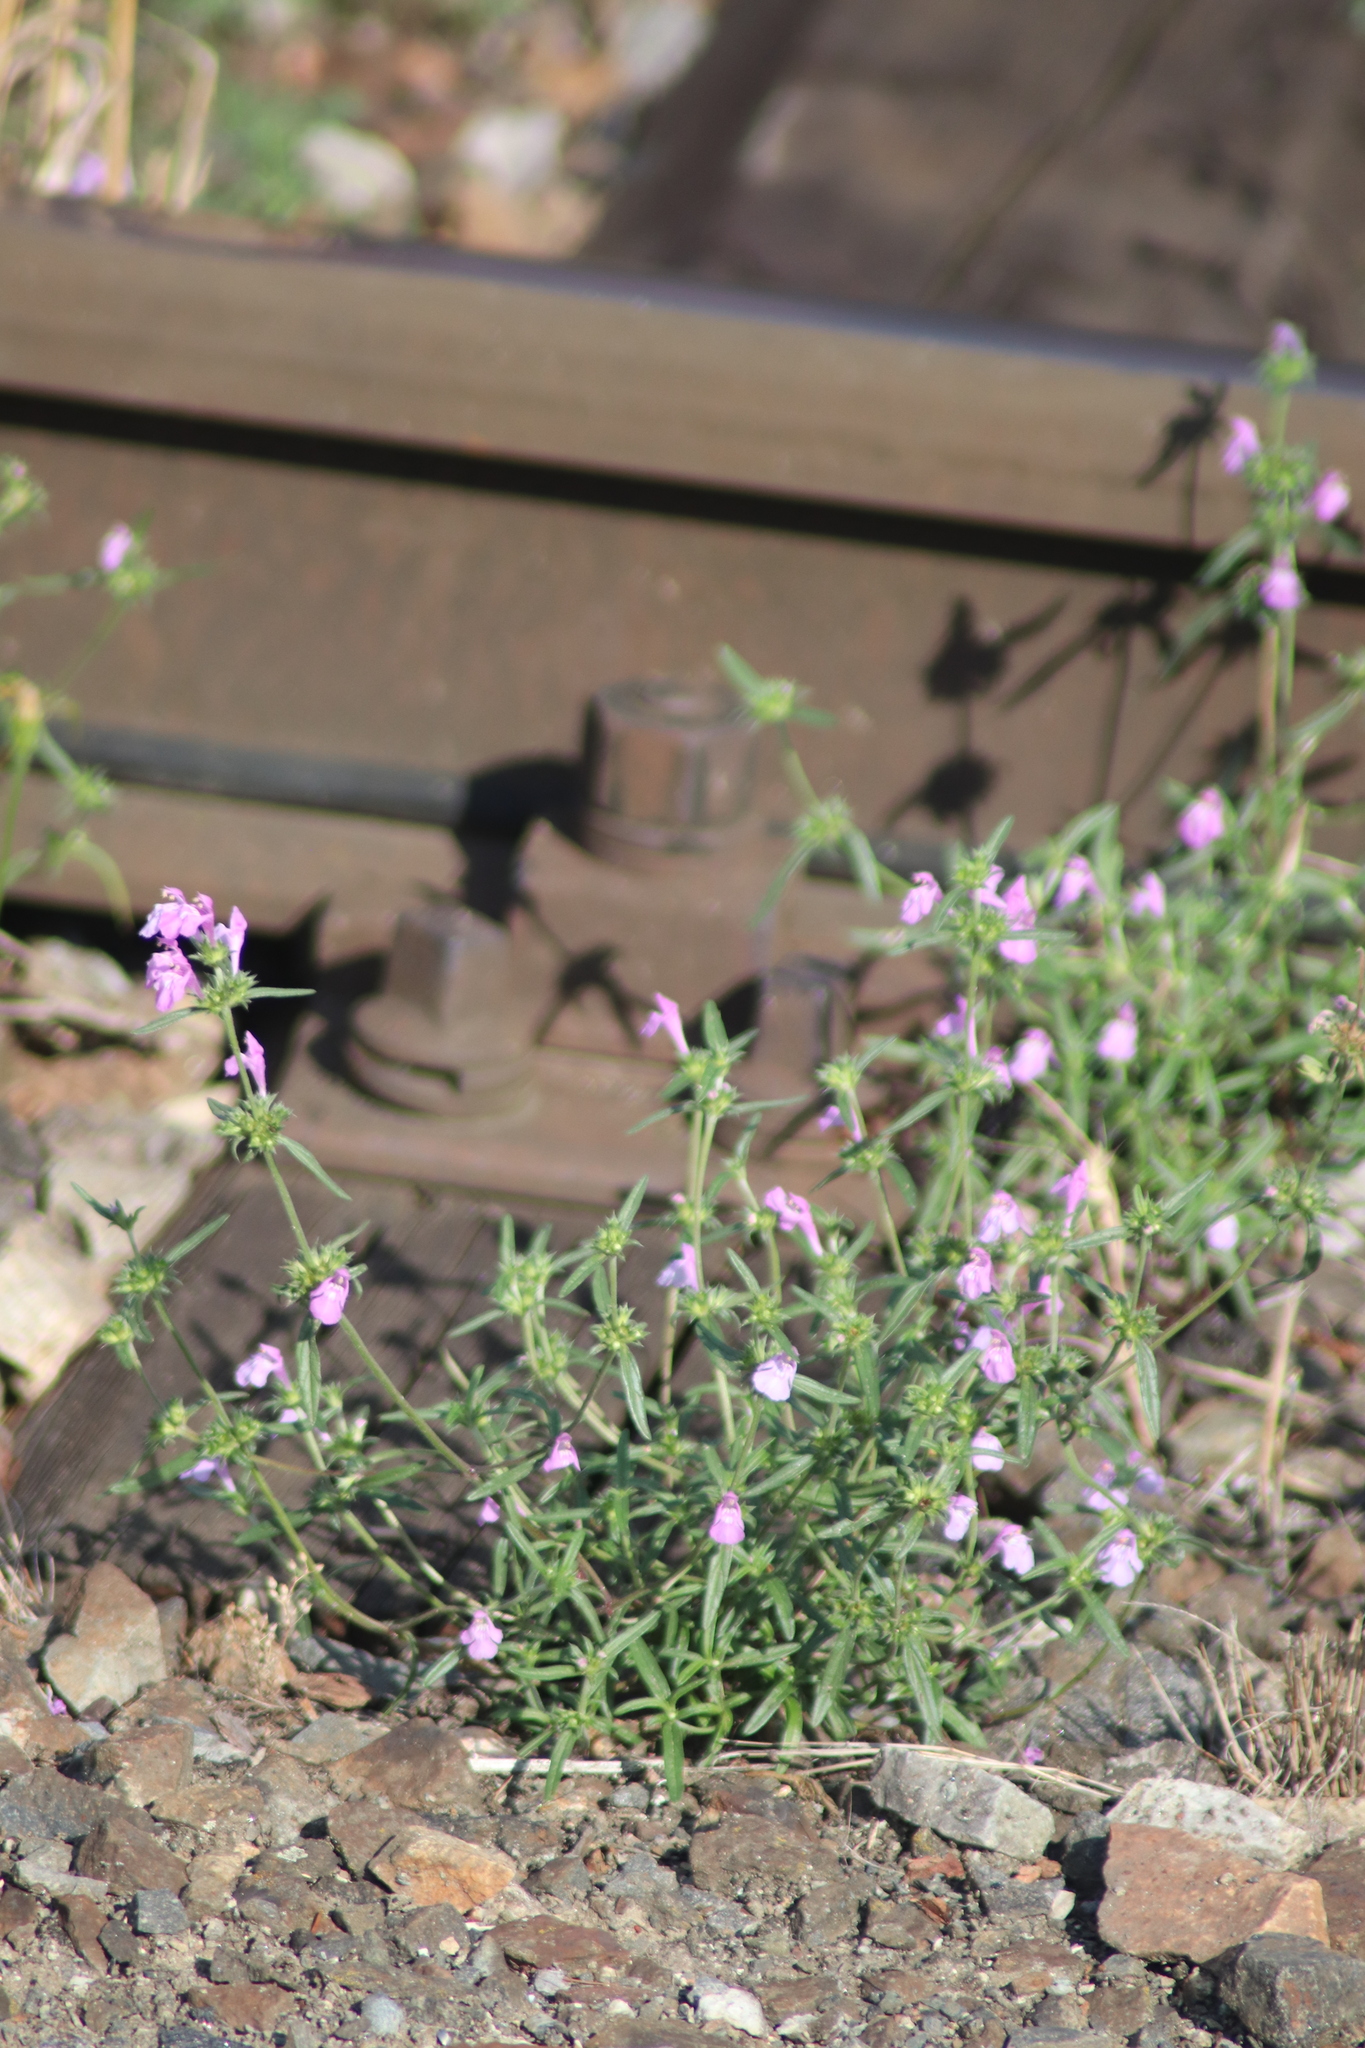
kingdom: Plantae
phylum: Tracheophyta
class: Magnoliopsida
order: Lamiales
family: Lamiaceae
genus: Galeopsis
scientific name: Galeopsis angustifolia
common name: Red hemp-nettle
